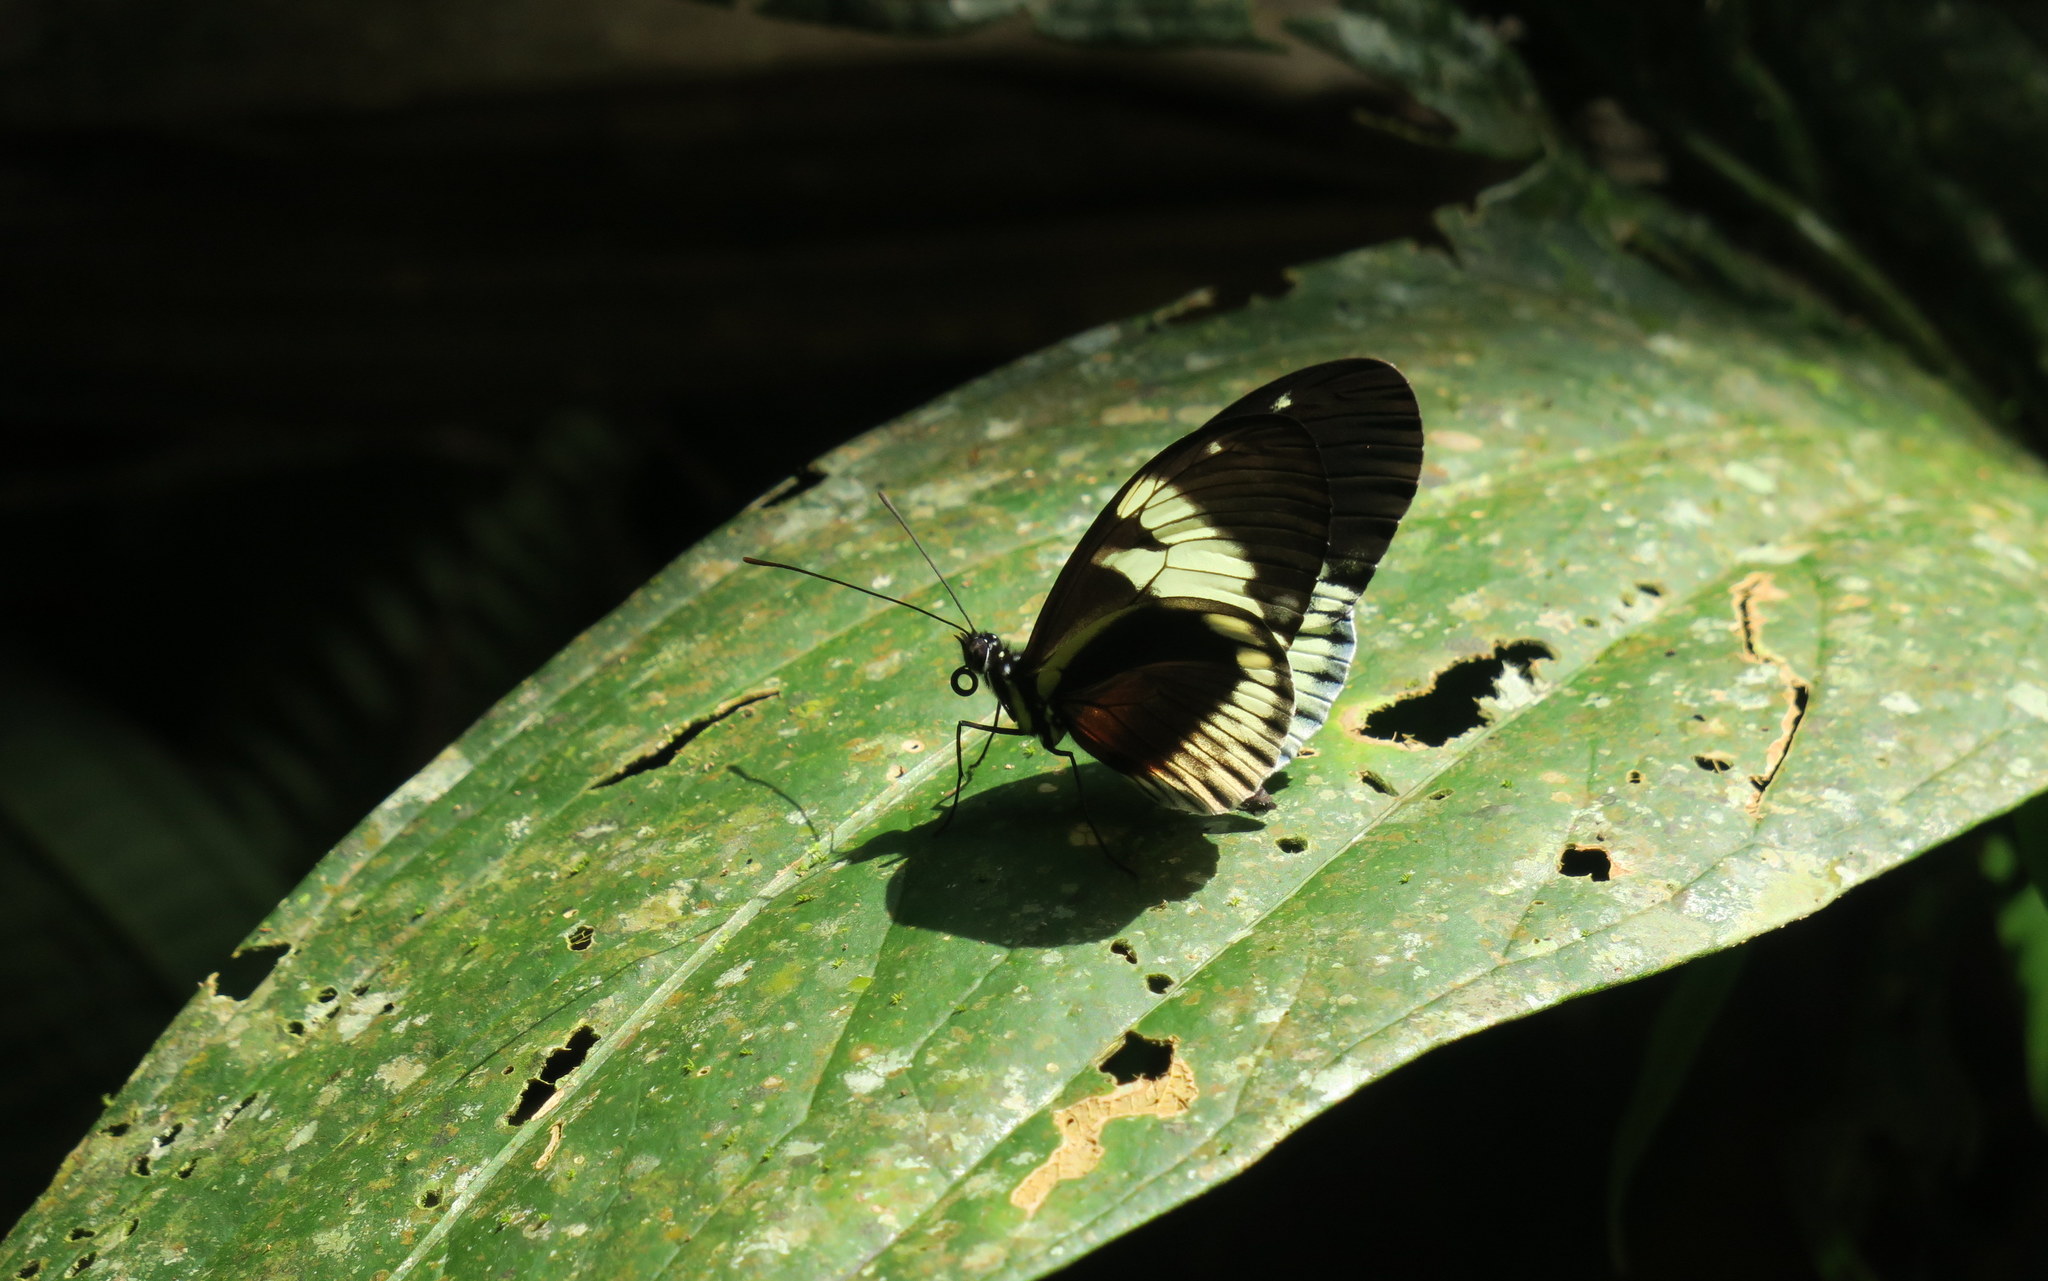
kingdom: Animalia
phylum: Arthropoda
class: Insecta
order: Lepidoptera
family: Nymphalidae
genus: Heliconius
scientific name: Heliconius cydno
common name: Cydno longwing
